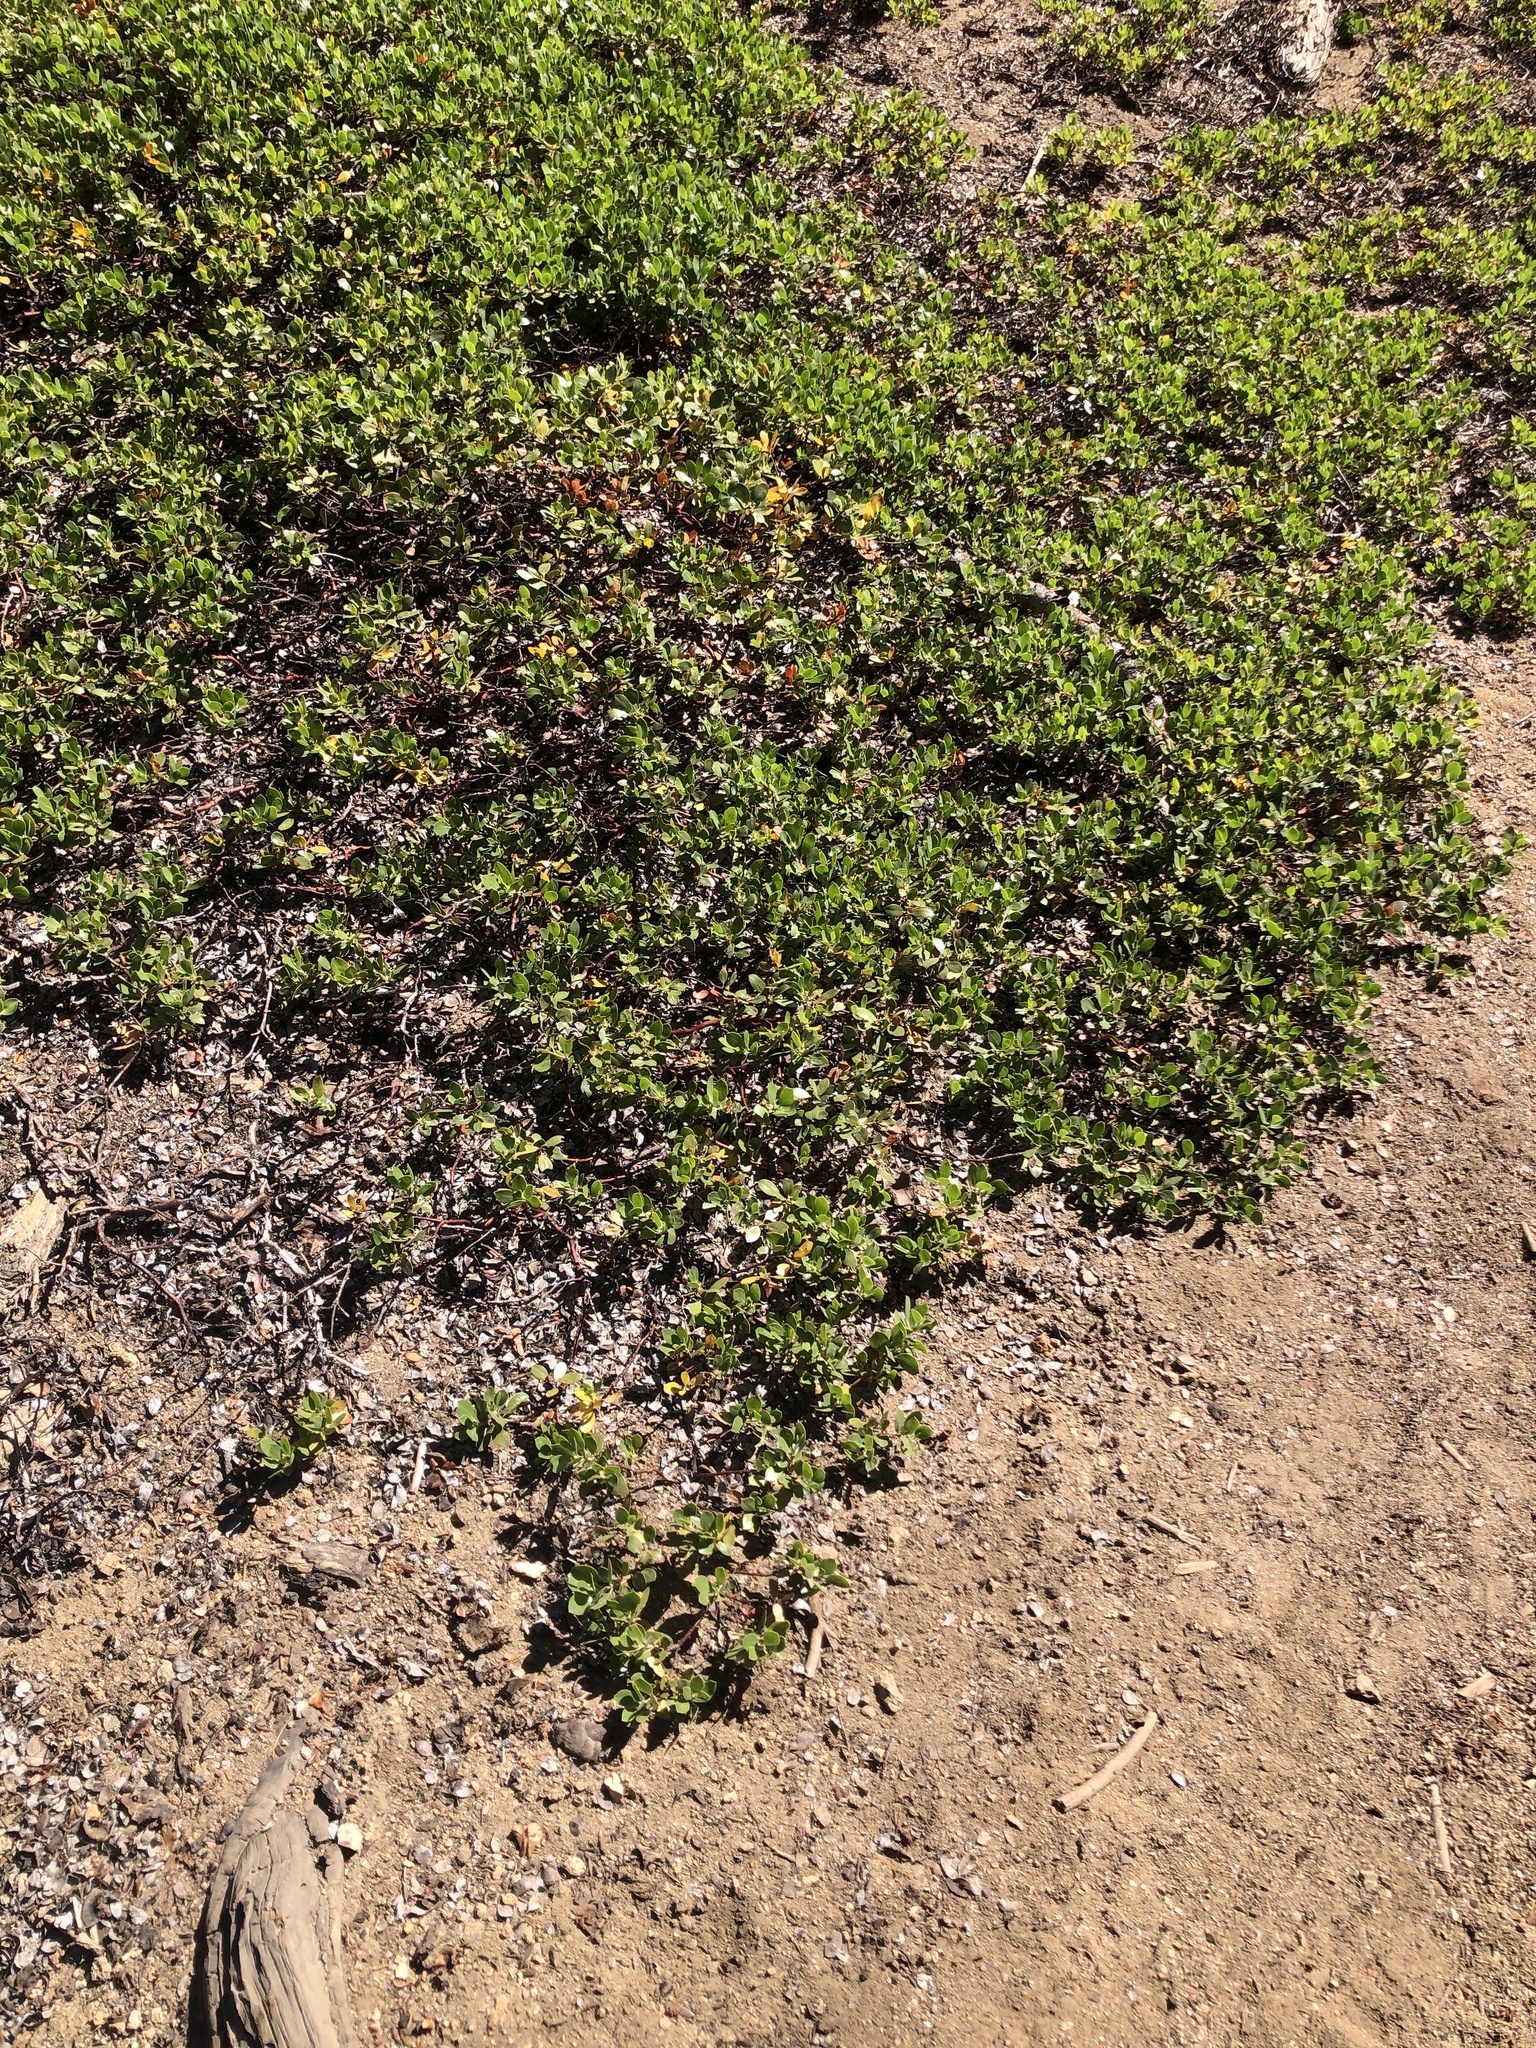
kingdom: Plantae
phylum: Tracheophyta
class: Magnoliopsida
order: Ericales
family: Ericaceae
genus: Arctostaphylos
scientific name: Arctostaphylos nevadensis
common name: Pinemat manzanita
